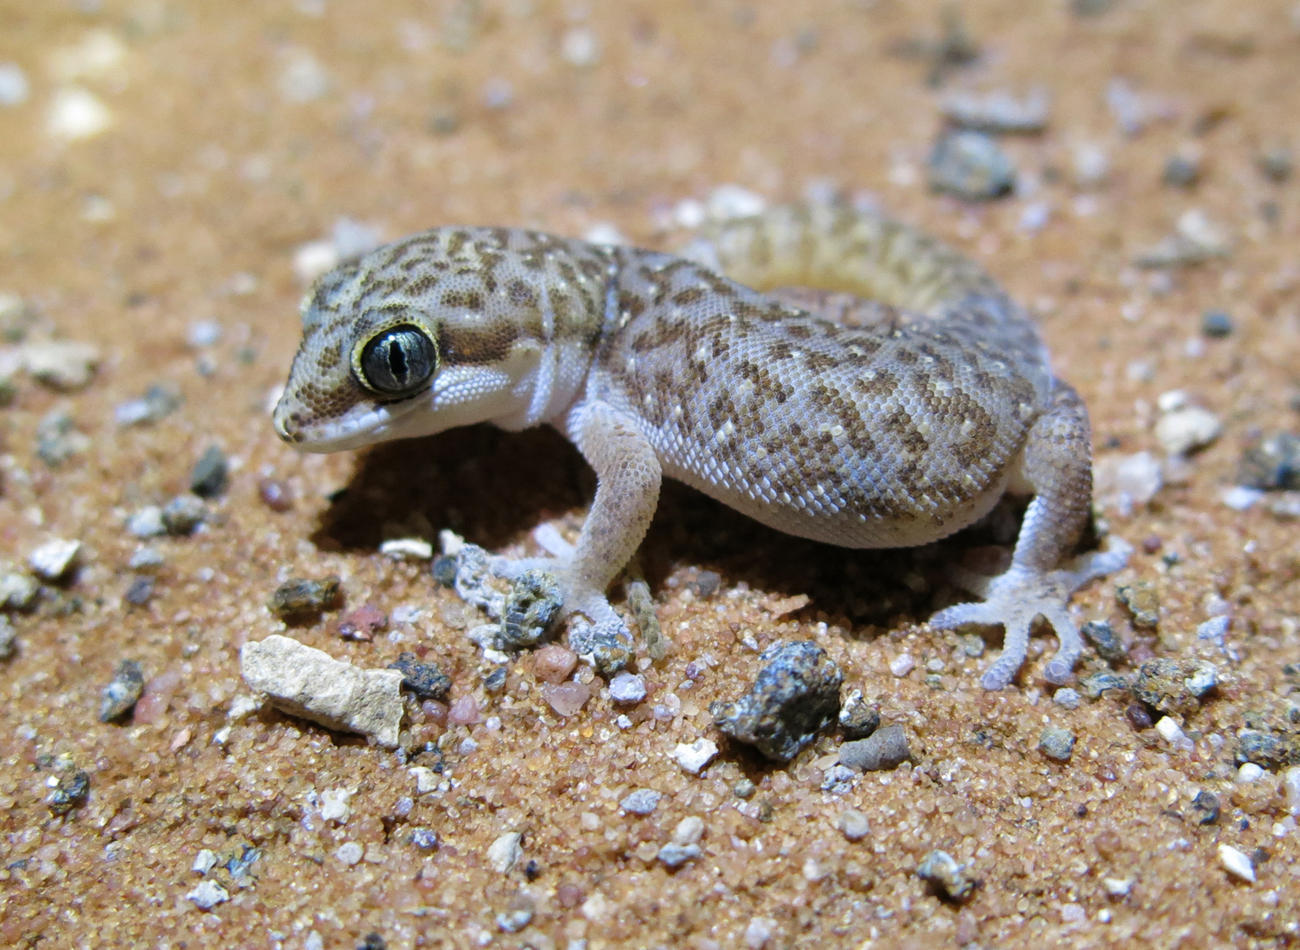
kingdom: Animalia
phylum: Chordata
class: Squamata
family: Gekkonidae
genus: Pachydactylus
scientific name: Pachydactylus punctatus
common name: Pointed thick-toed gecko
